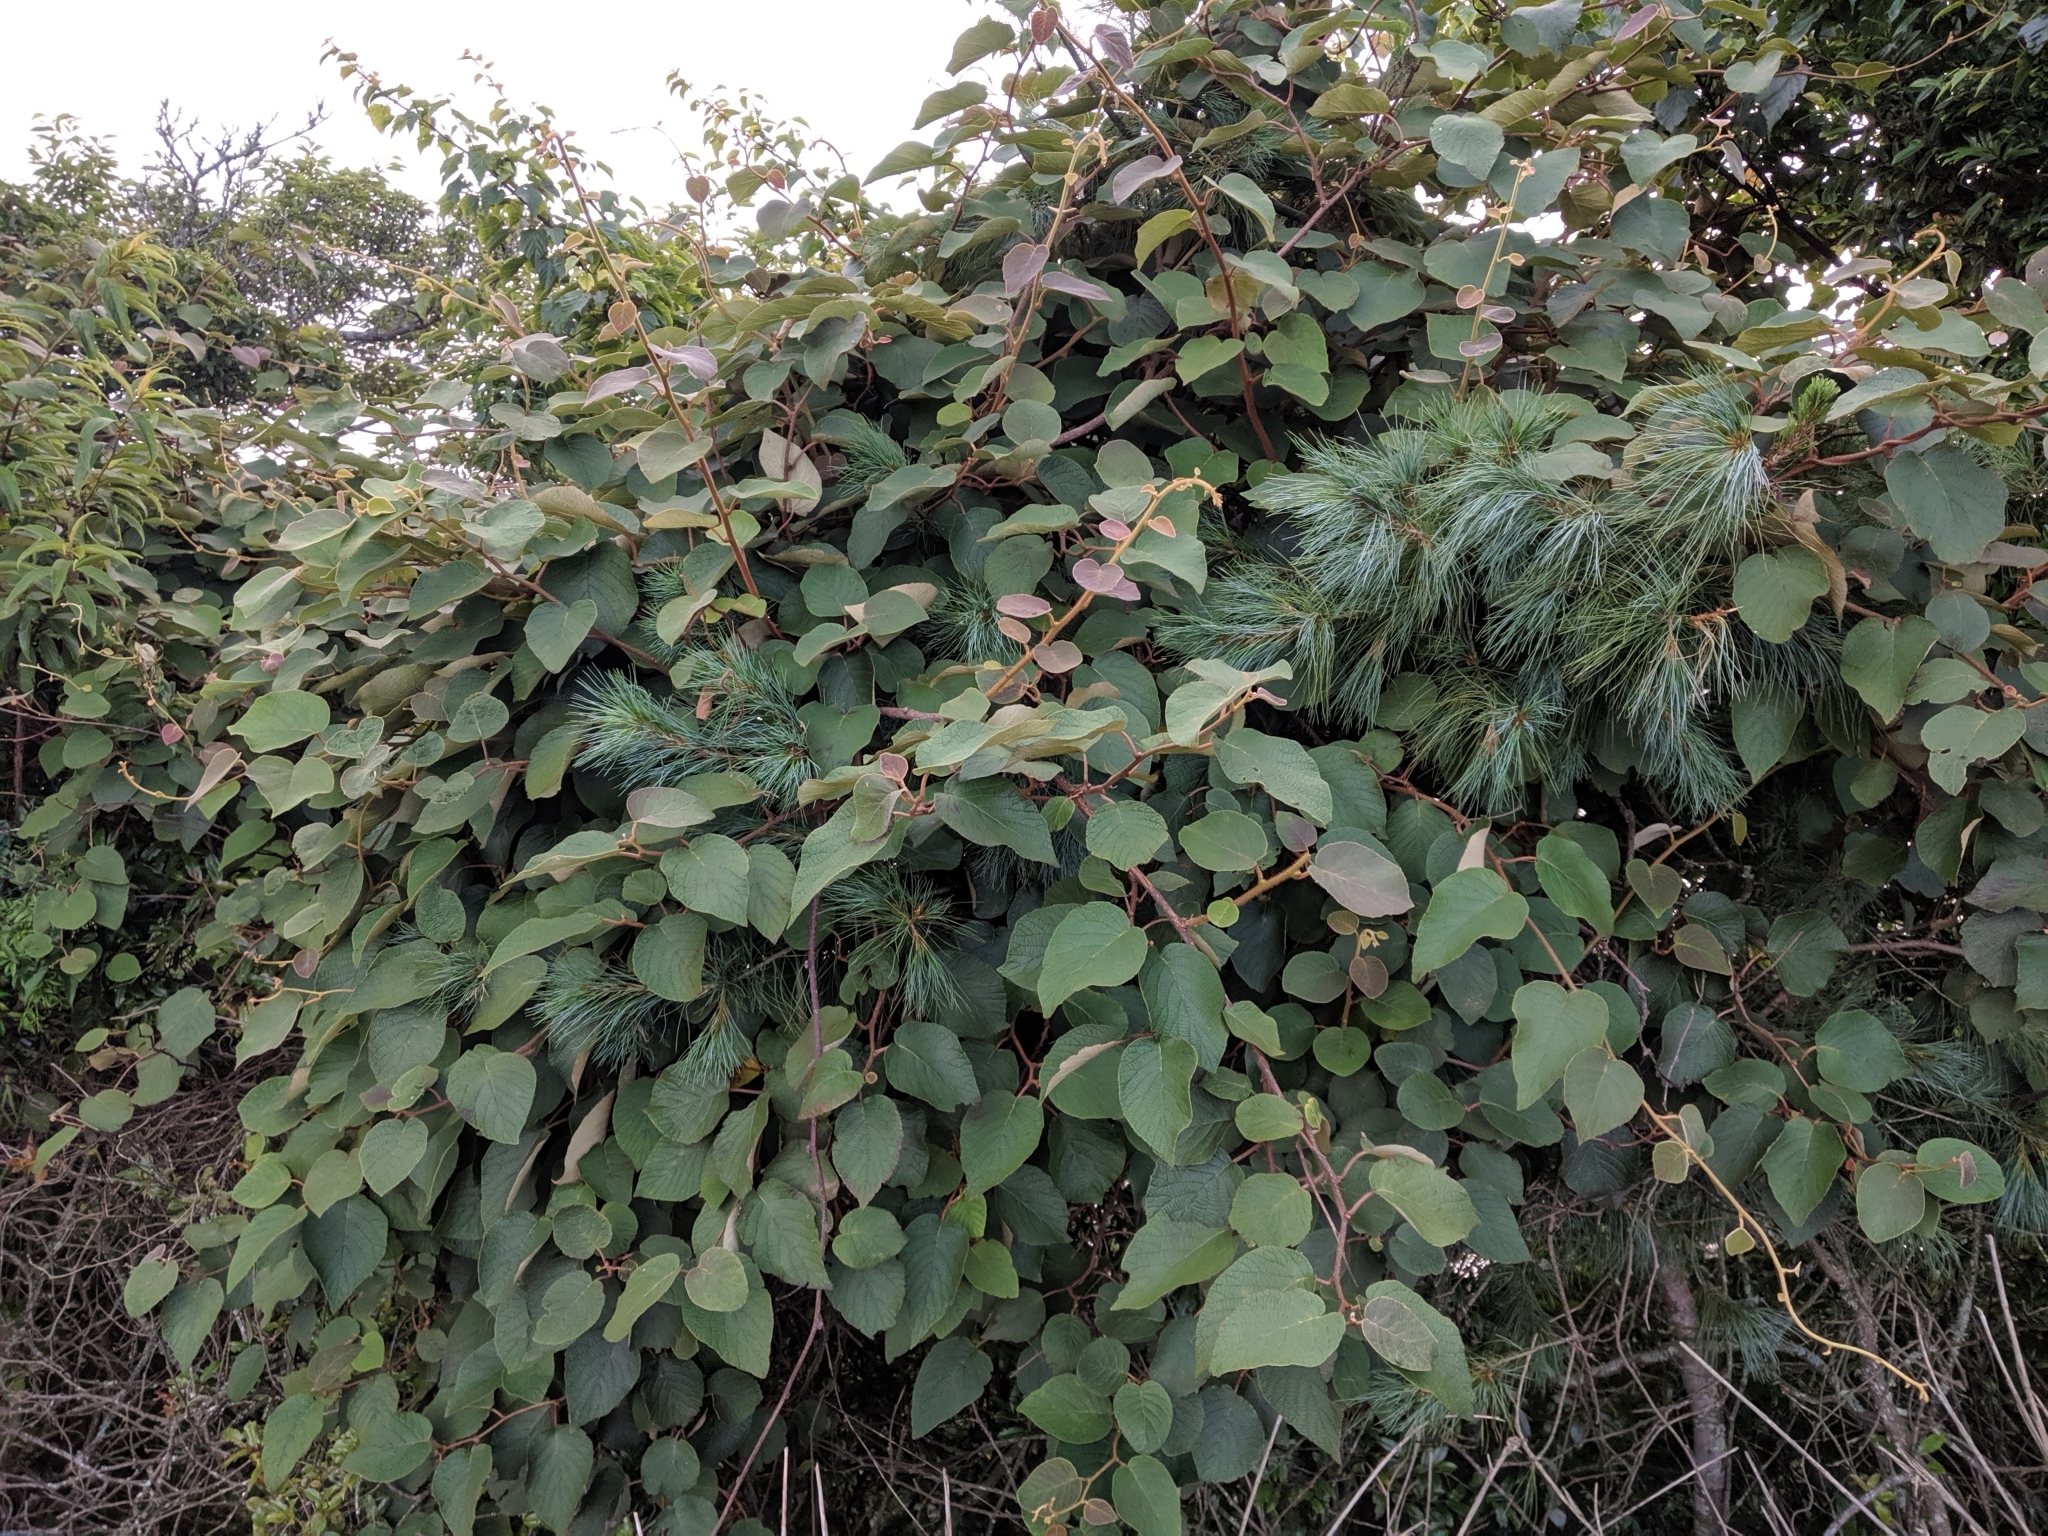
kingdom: Plantae
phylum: Tracheophyta
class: Magnoliopsida
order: Ericales
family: Actinidiaceae
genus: Actinidia
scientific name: Actinidia chinensis
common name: Kiwi
